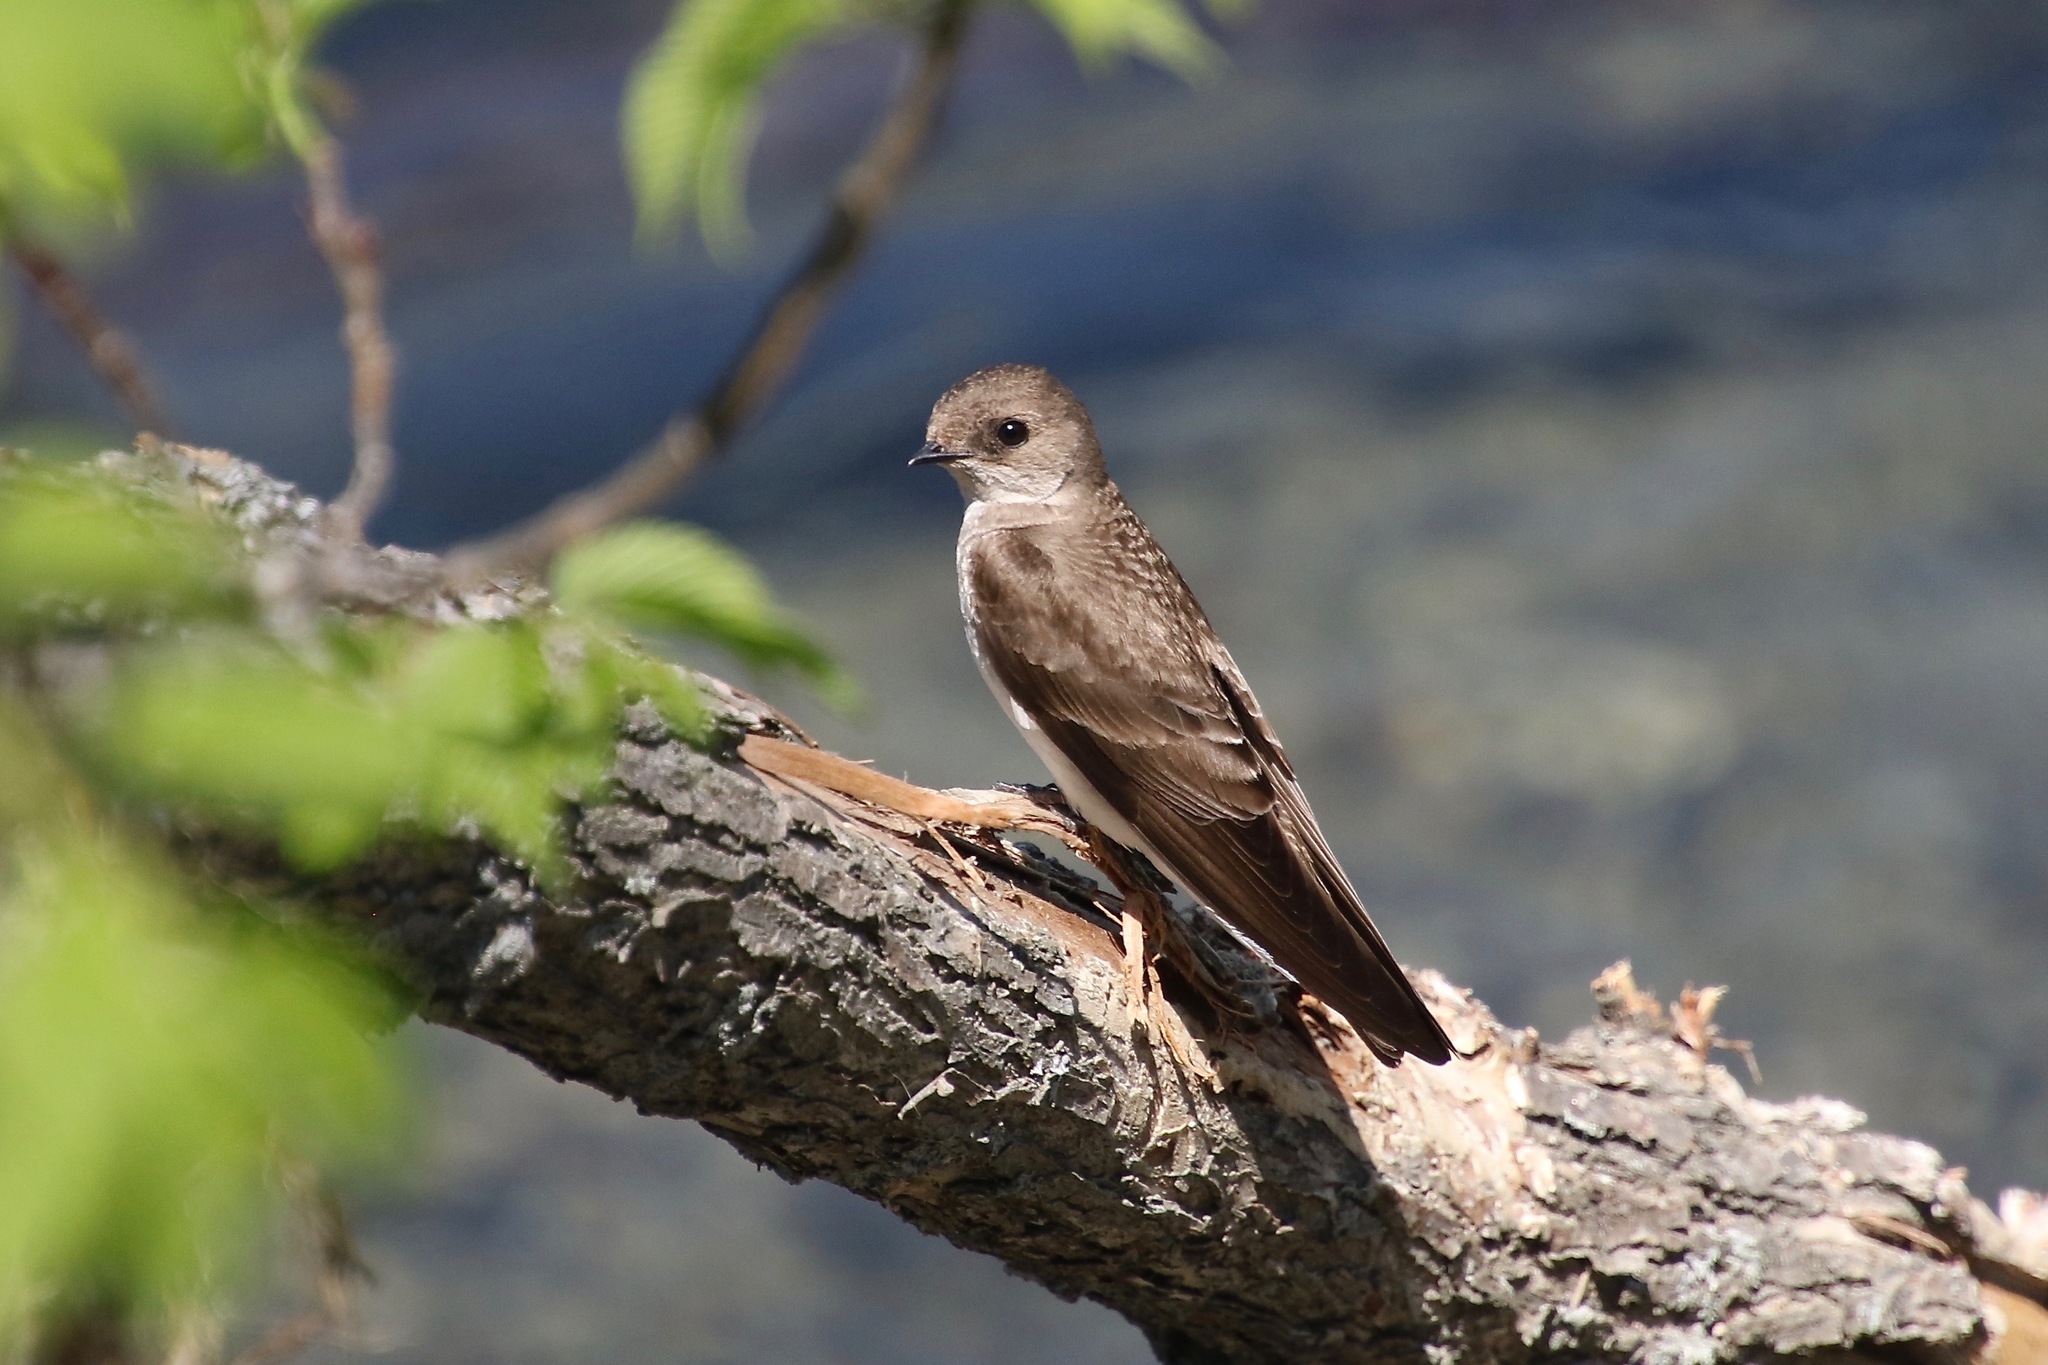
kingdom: Animalia
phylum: Chordata
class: Aves
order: Passeriformes
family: Hirundinidae
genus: Stelgidopteryx
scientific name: Stelgidopteryx serripennis
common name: Northern rough-winged swallow
